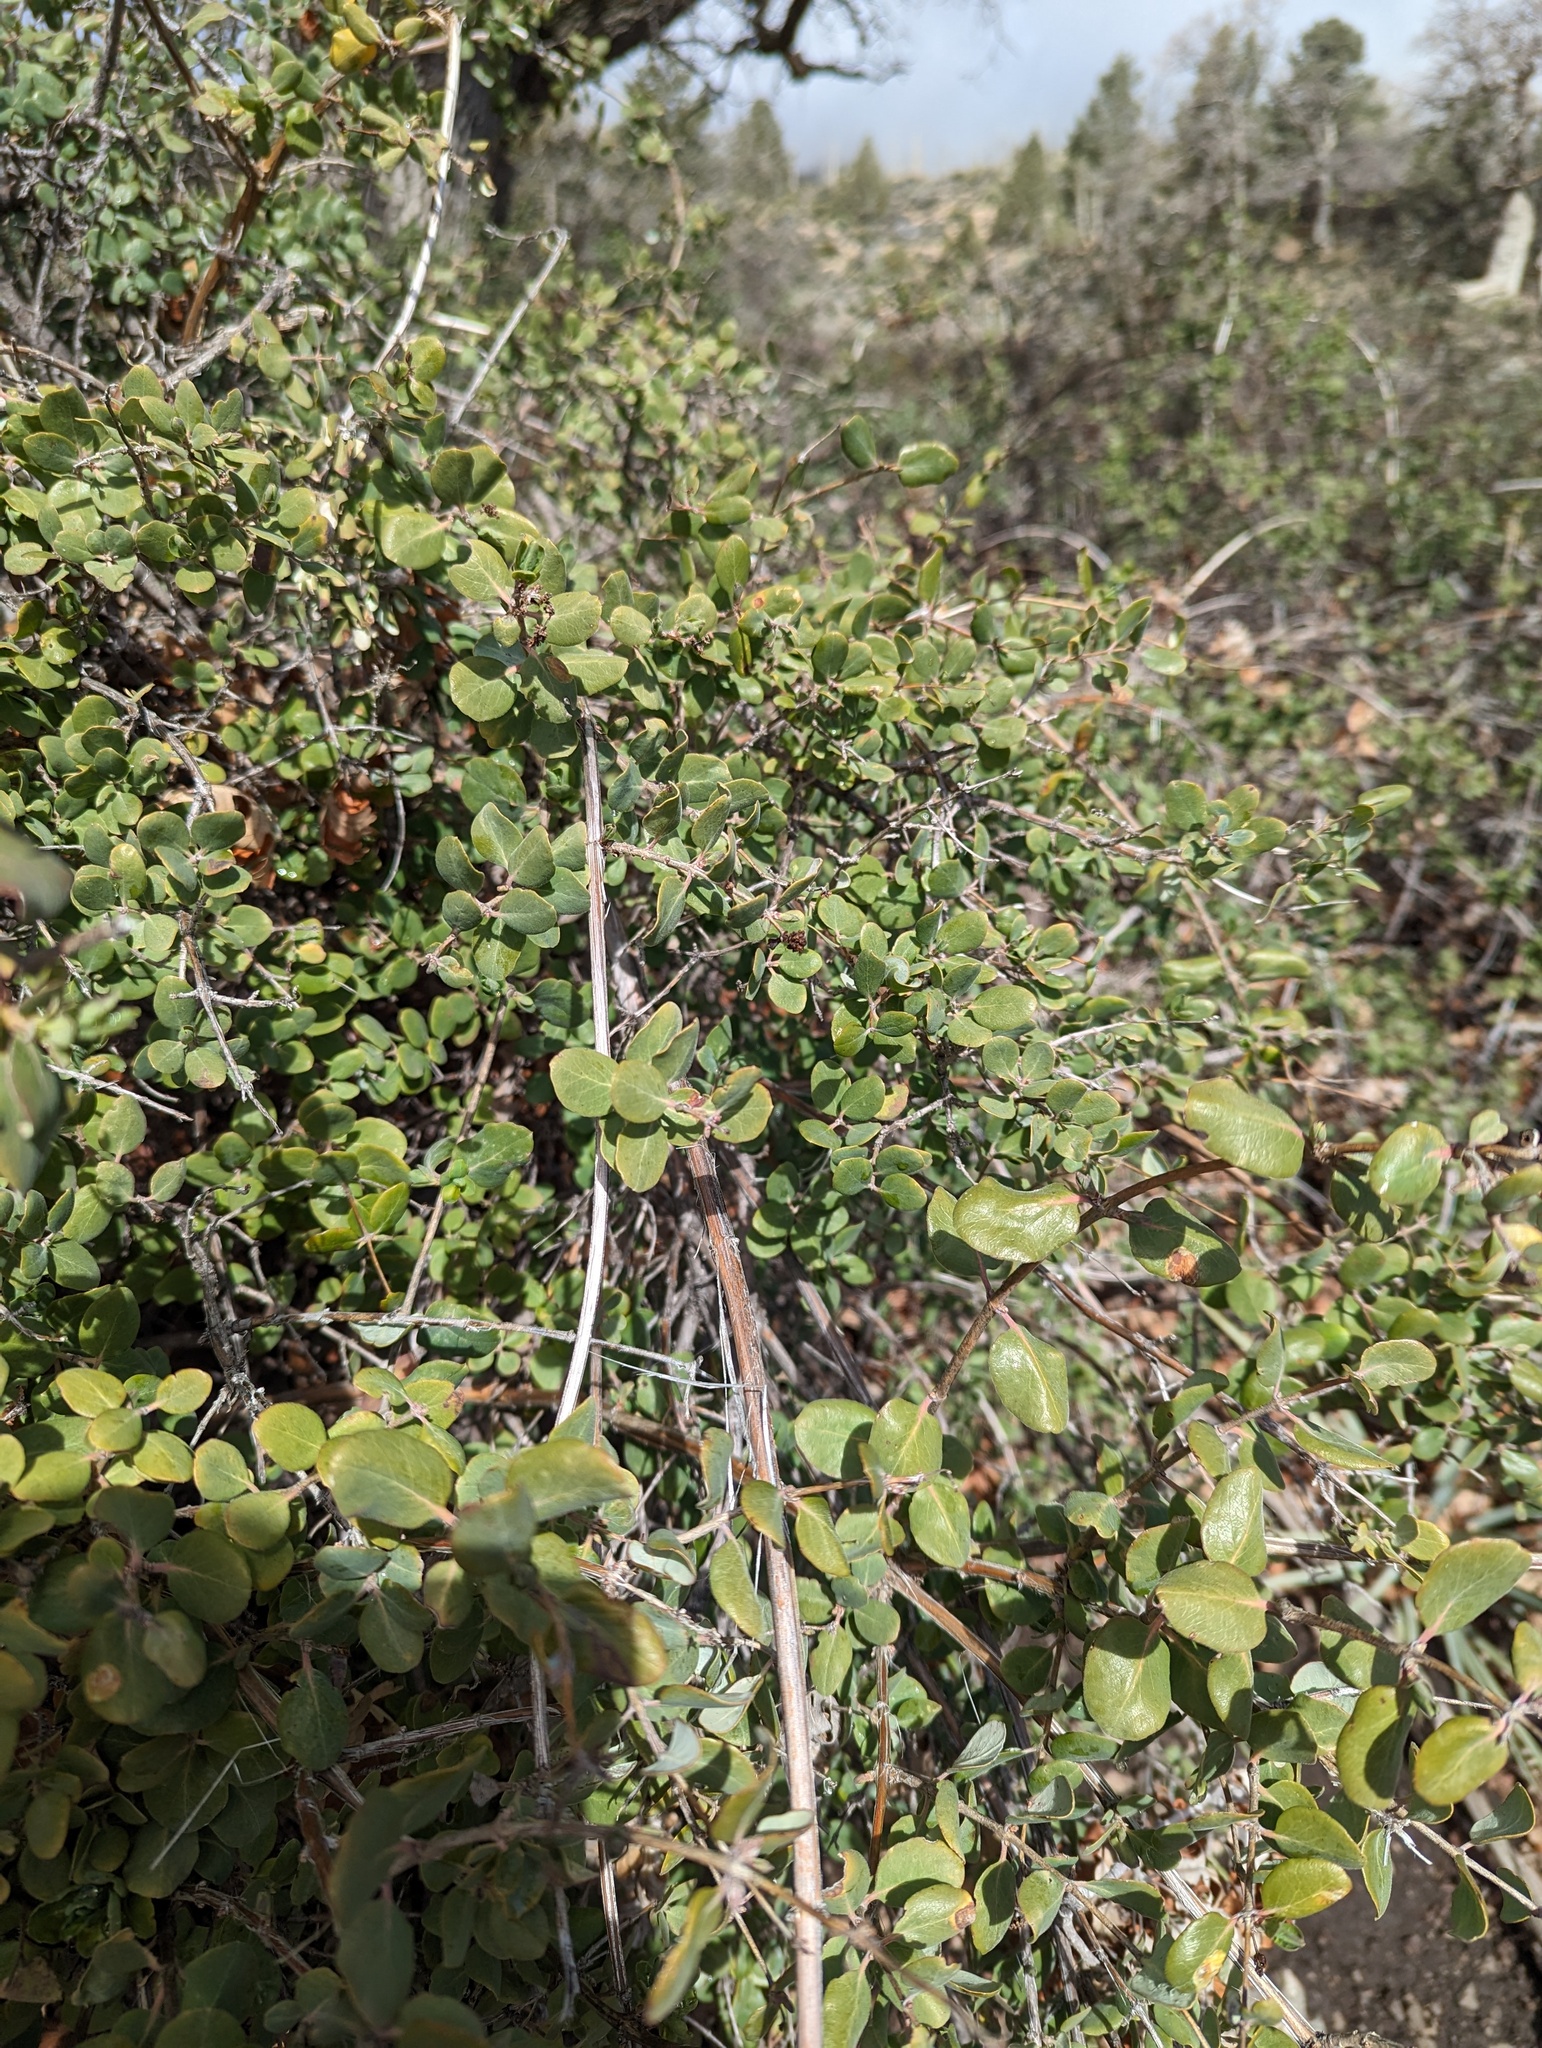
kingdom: Plantae
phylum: Tracheophyta
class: Magnoliopsida
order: Dipsacales
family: Caprifoliaceae
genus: Lonicera
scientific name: Lonicera subspicata
